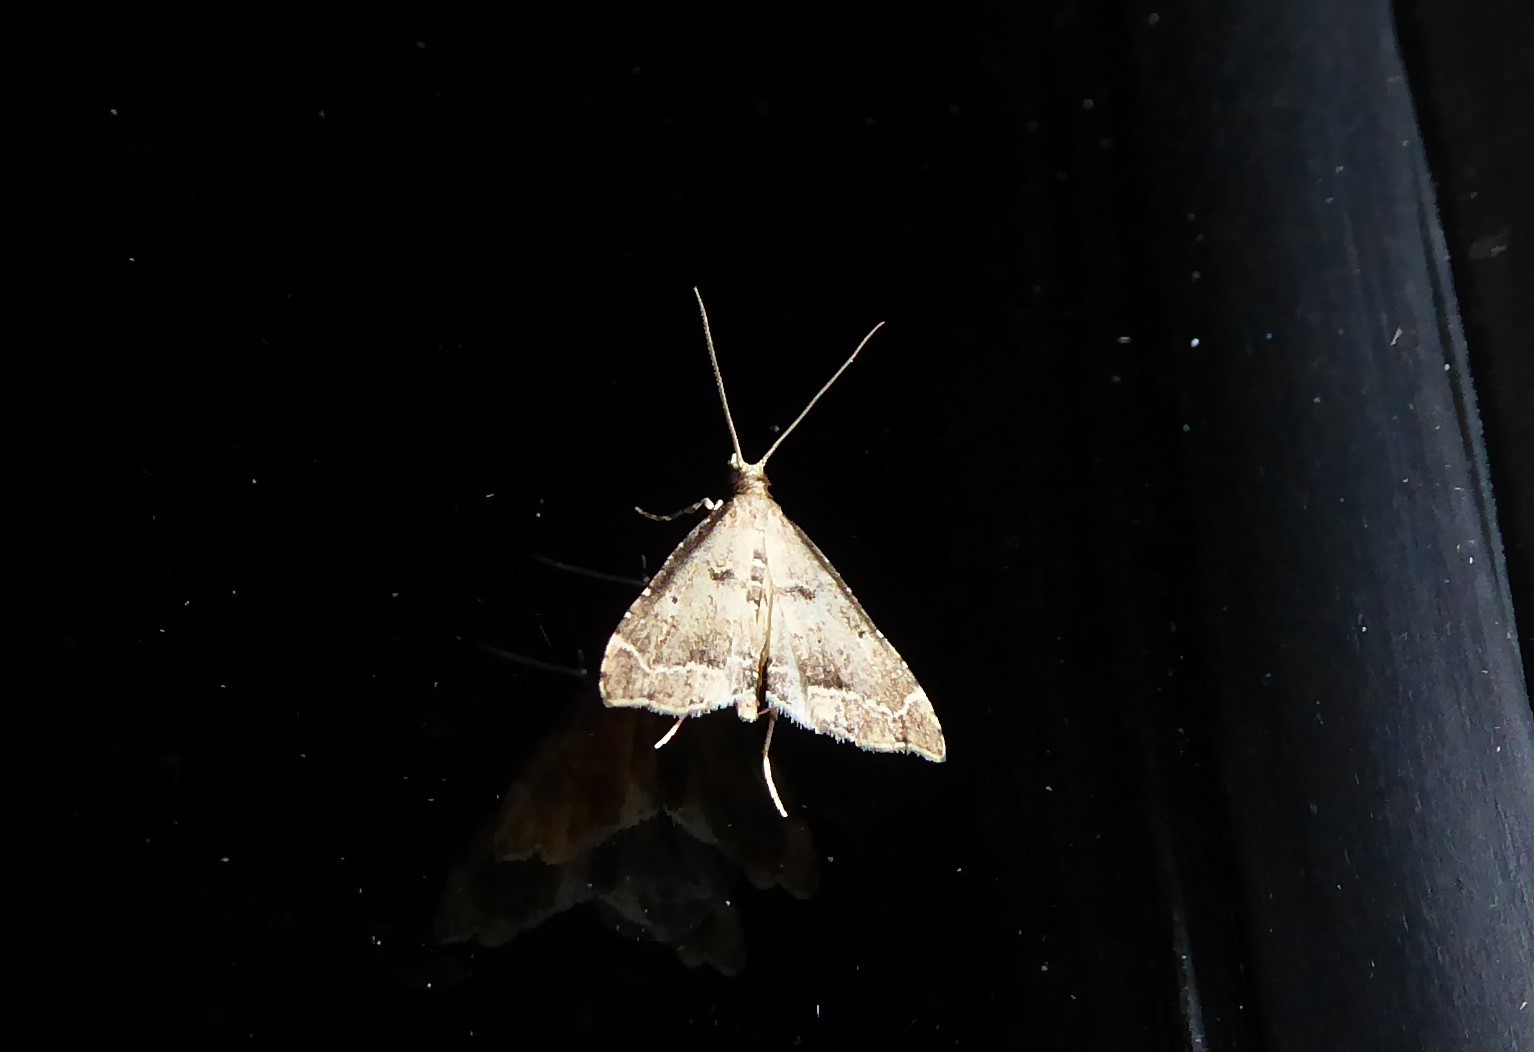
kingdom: Animalia
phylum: Arthropoda
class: Insecta
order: Lepidoptera
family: Crambidae
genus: Diplopseustis
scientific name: Diplopseustis perieresalis
